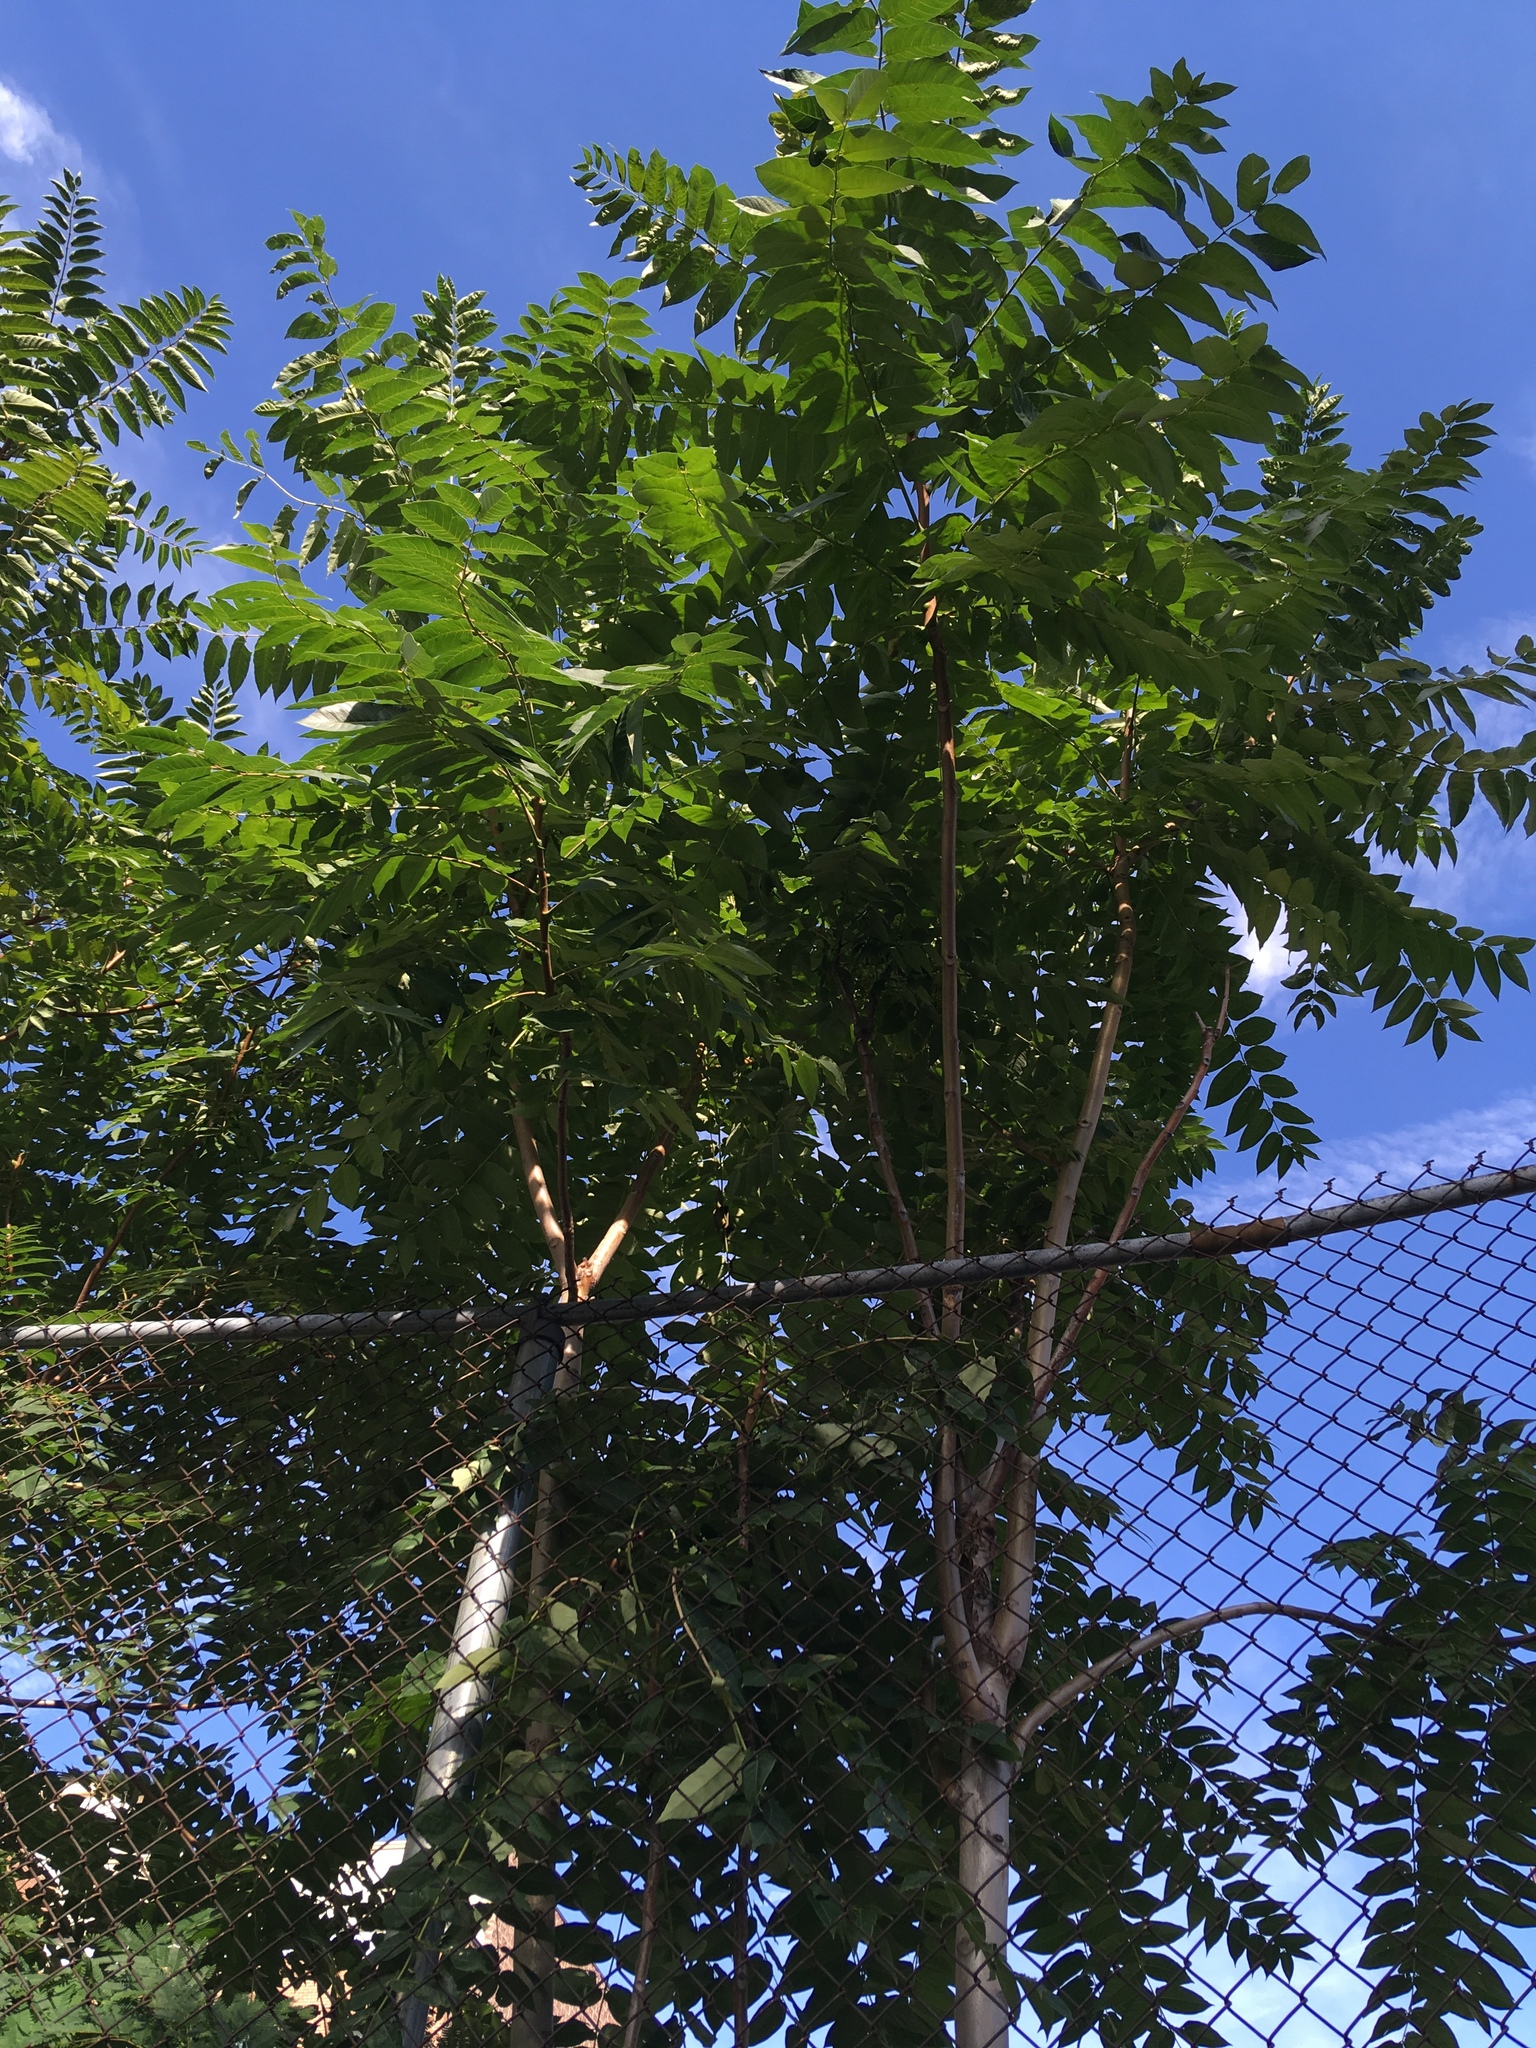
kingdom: Plantae
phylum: Tracheophyta
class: Magnoliopsida
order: Sapindales
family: Simaroubaceae
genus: Ailanthus
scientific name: Ailanthus altissima
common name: Tree-of-heaven
